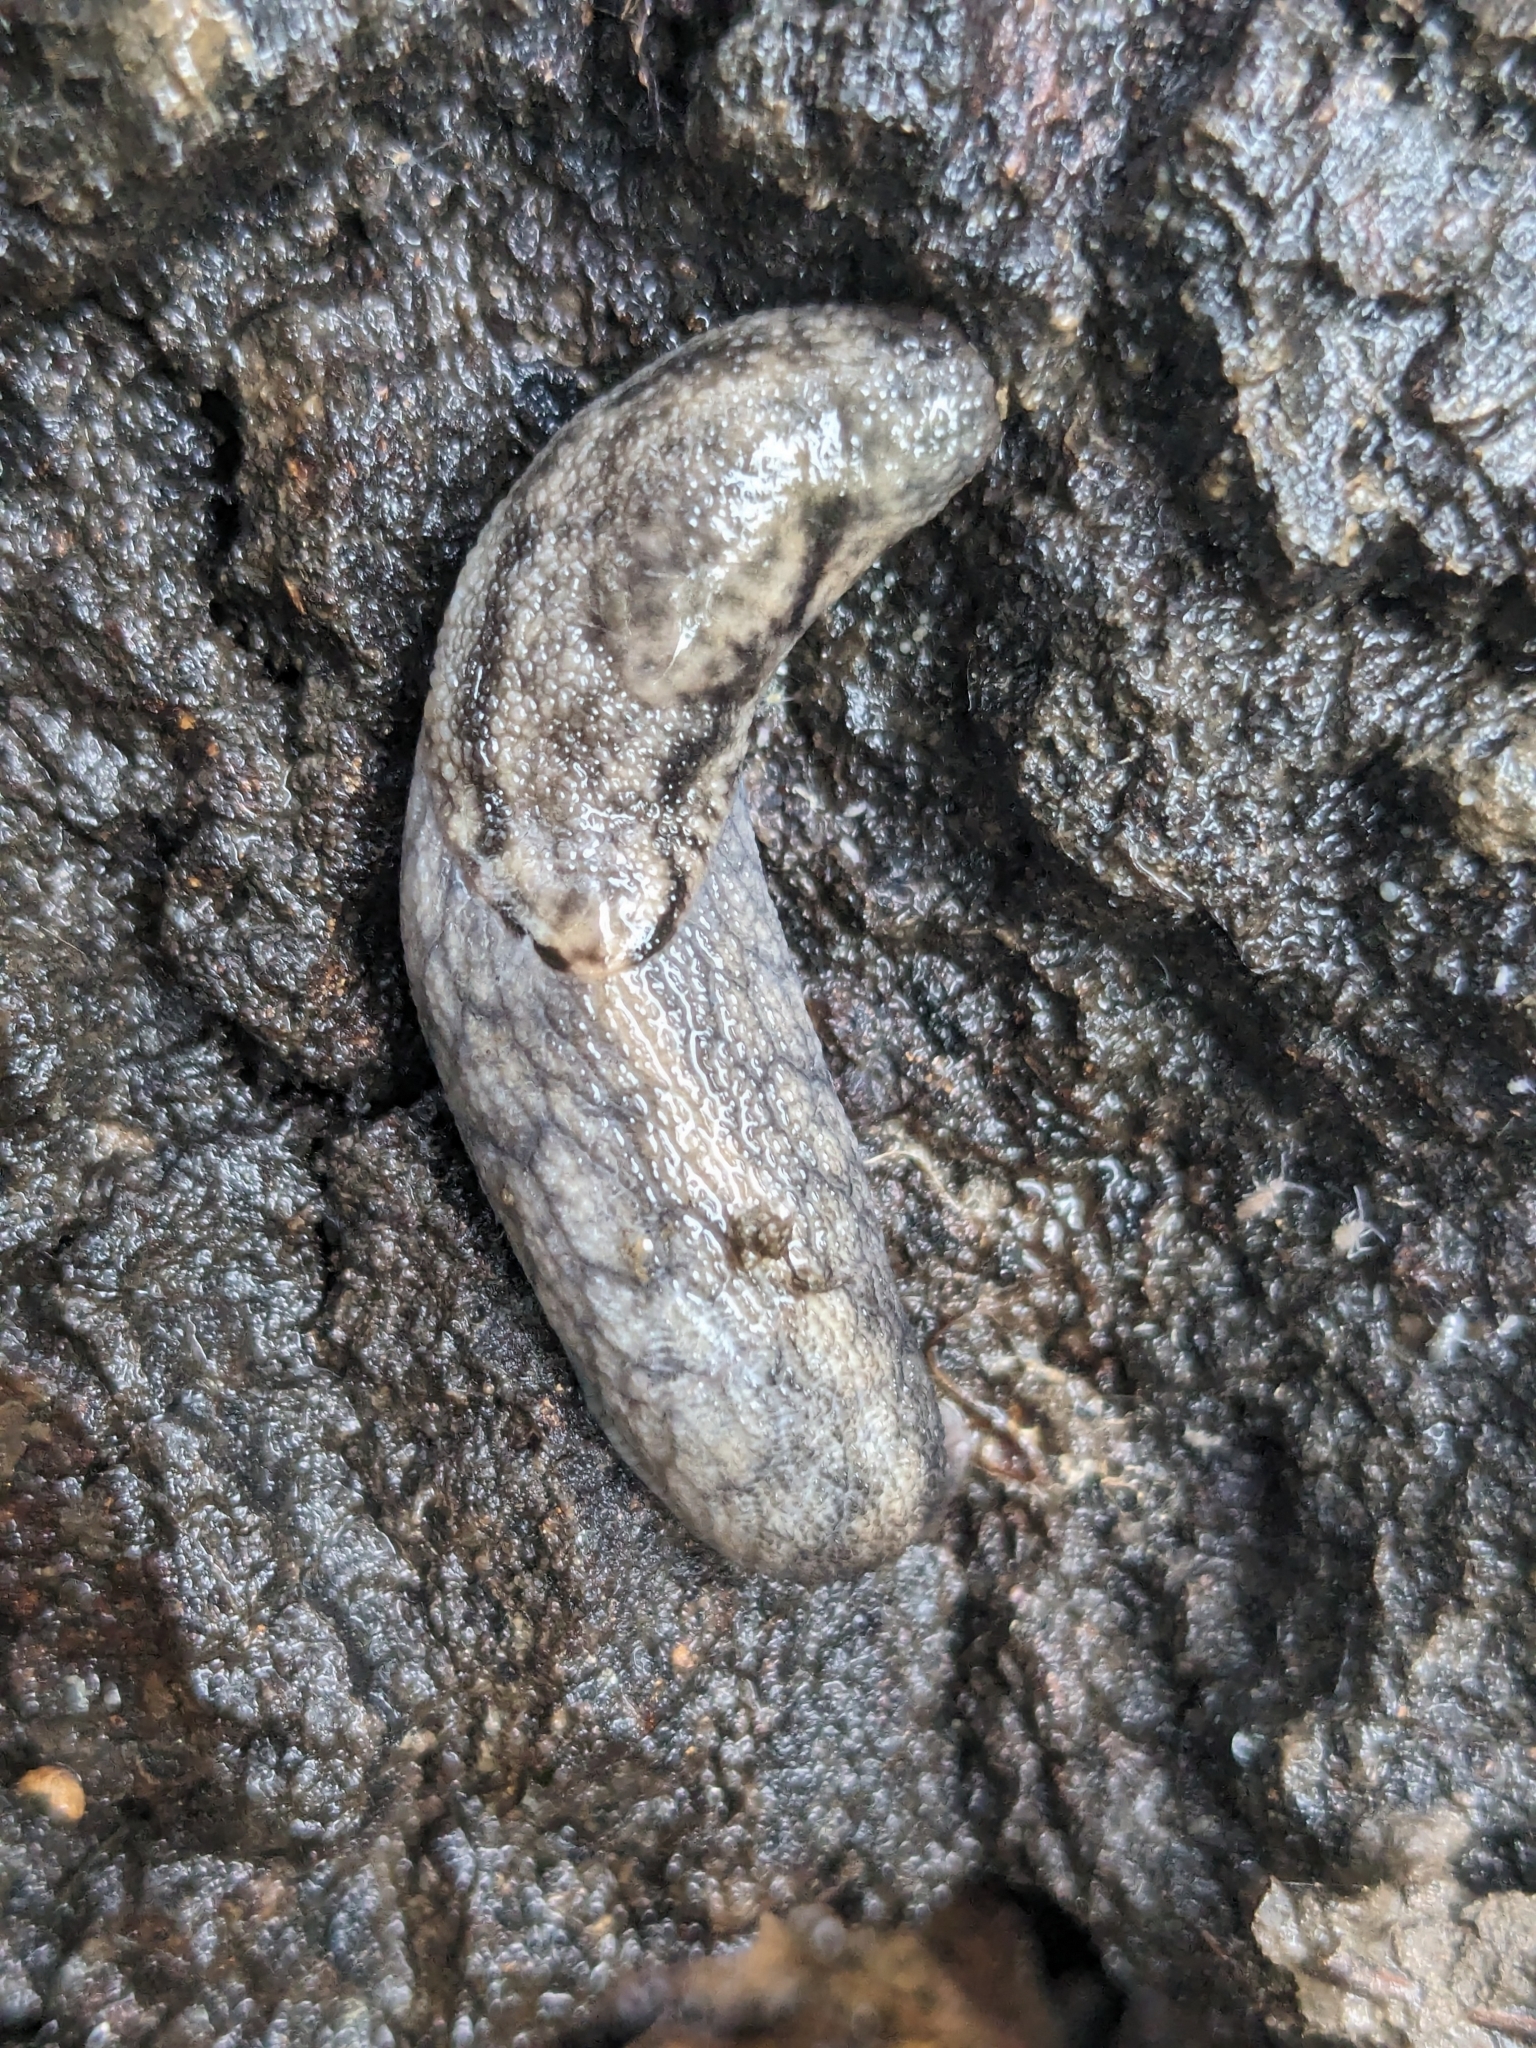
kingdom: Animalia
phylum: Mollusca
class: Gastropoda
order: Stylommatophora
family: Ariolimacidae
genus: Prophysaon
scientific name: Prophysaon andersonii
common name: Reticulate taildropper
